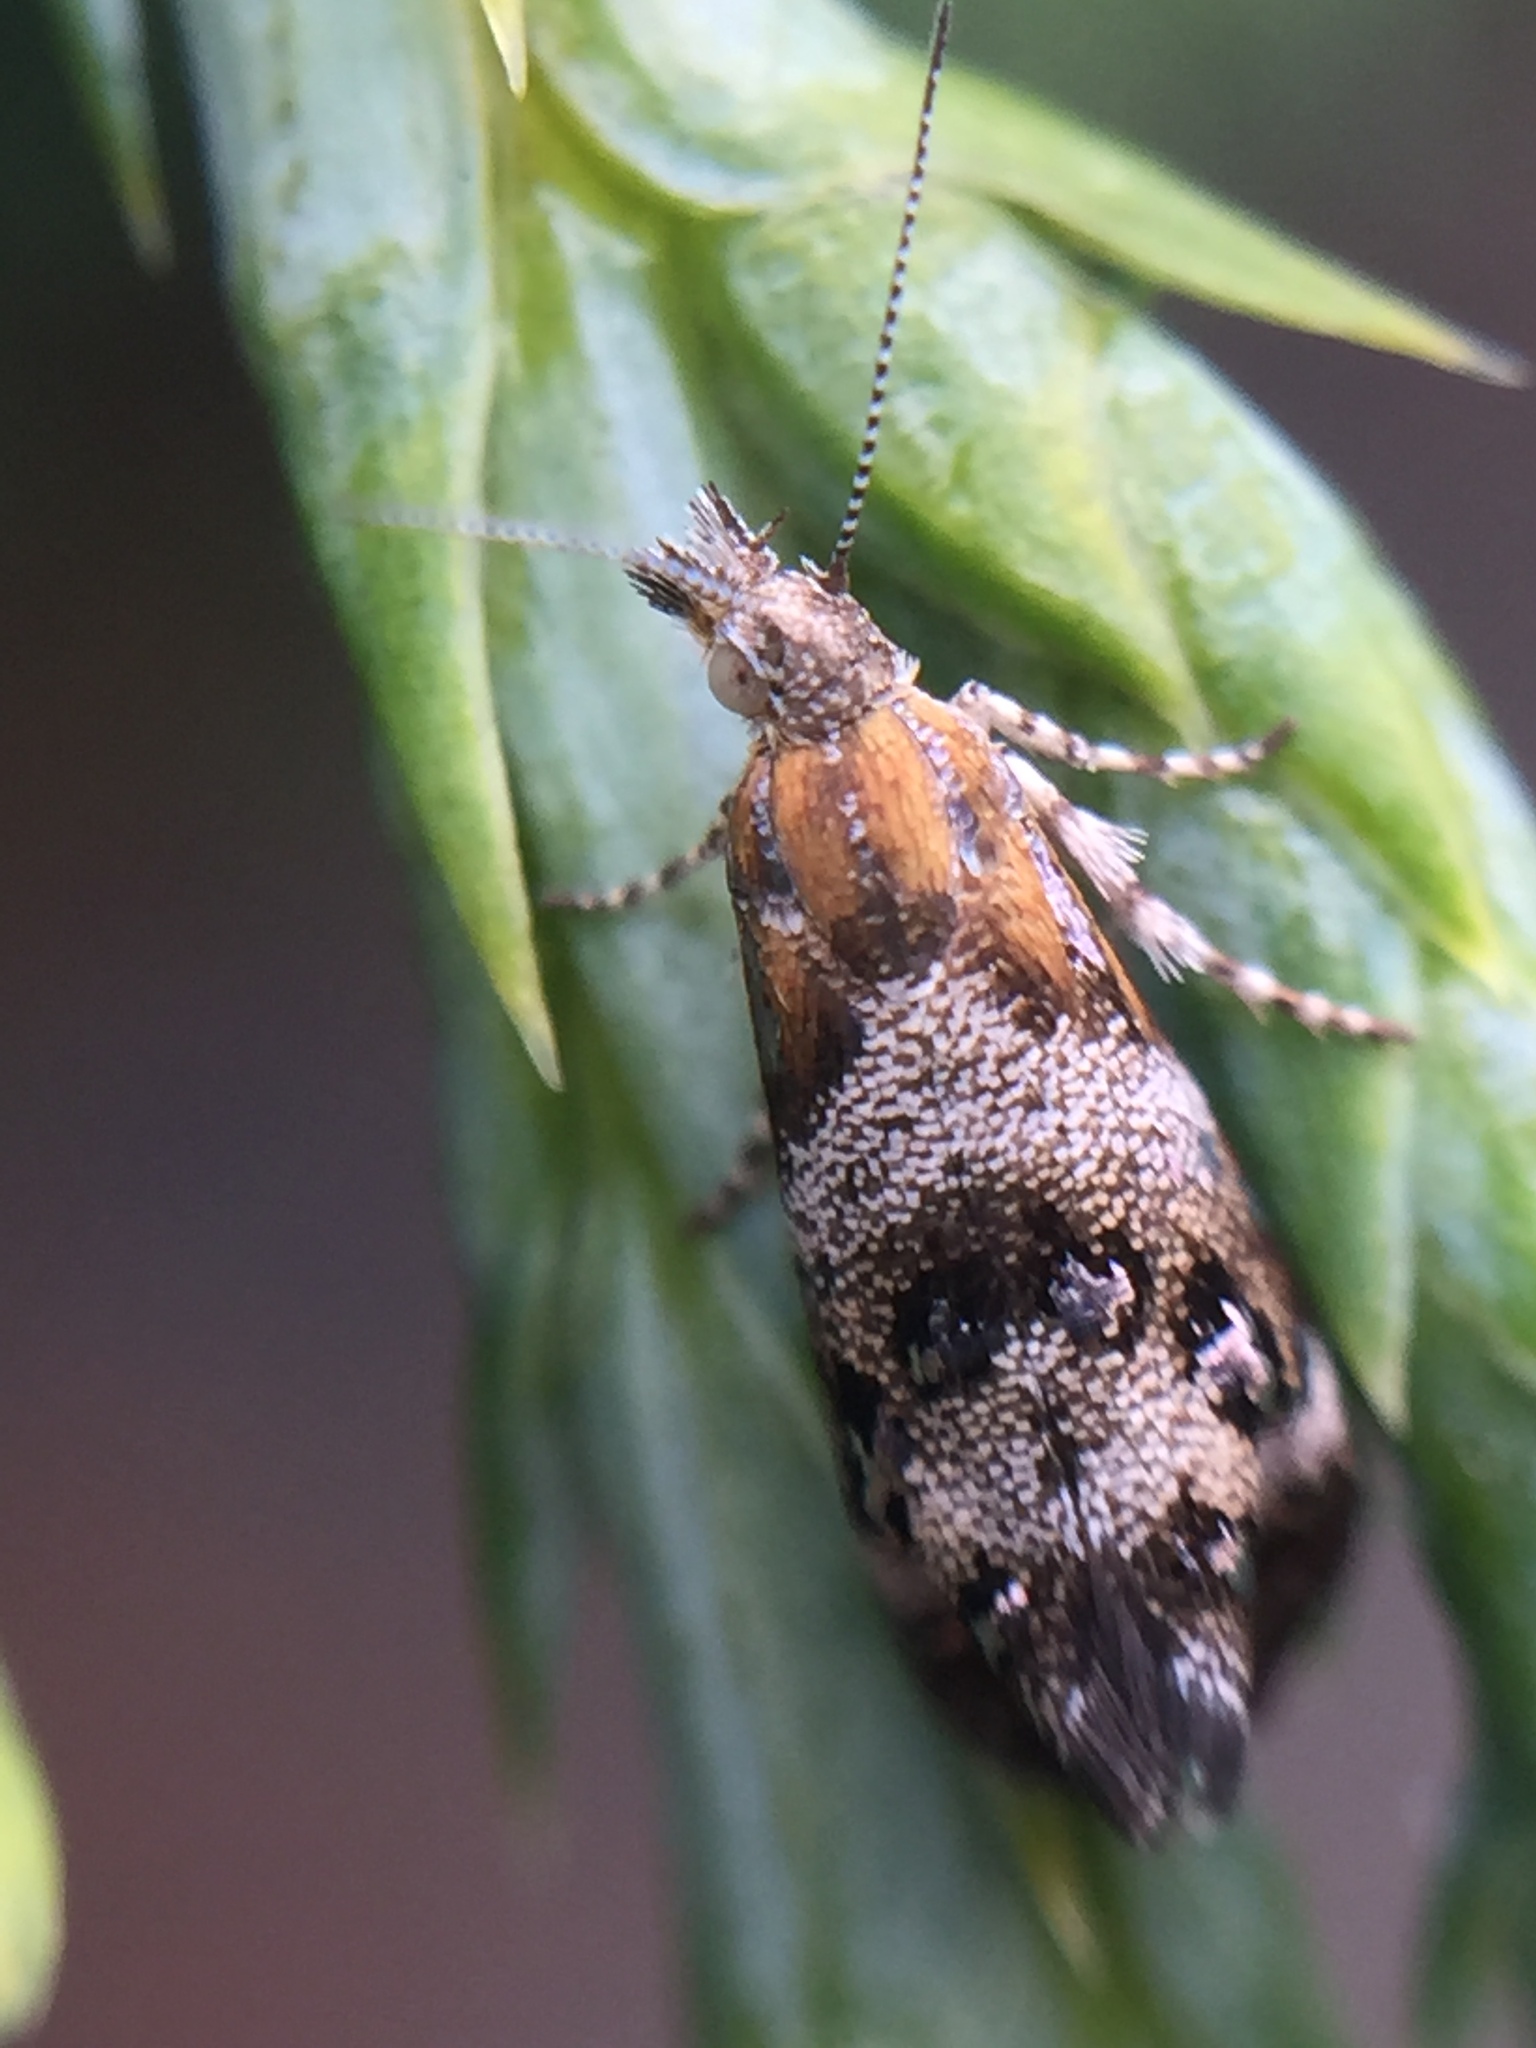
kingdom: Animalia
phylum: Arthropoda
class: Insecta
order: Lepidoptera
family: Choreutidae
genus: Tebenna
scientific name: Tebenna micalis
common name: Vagrant twitcher
